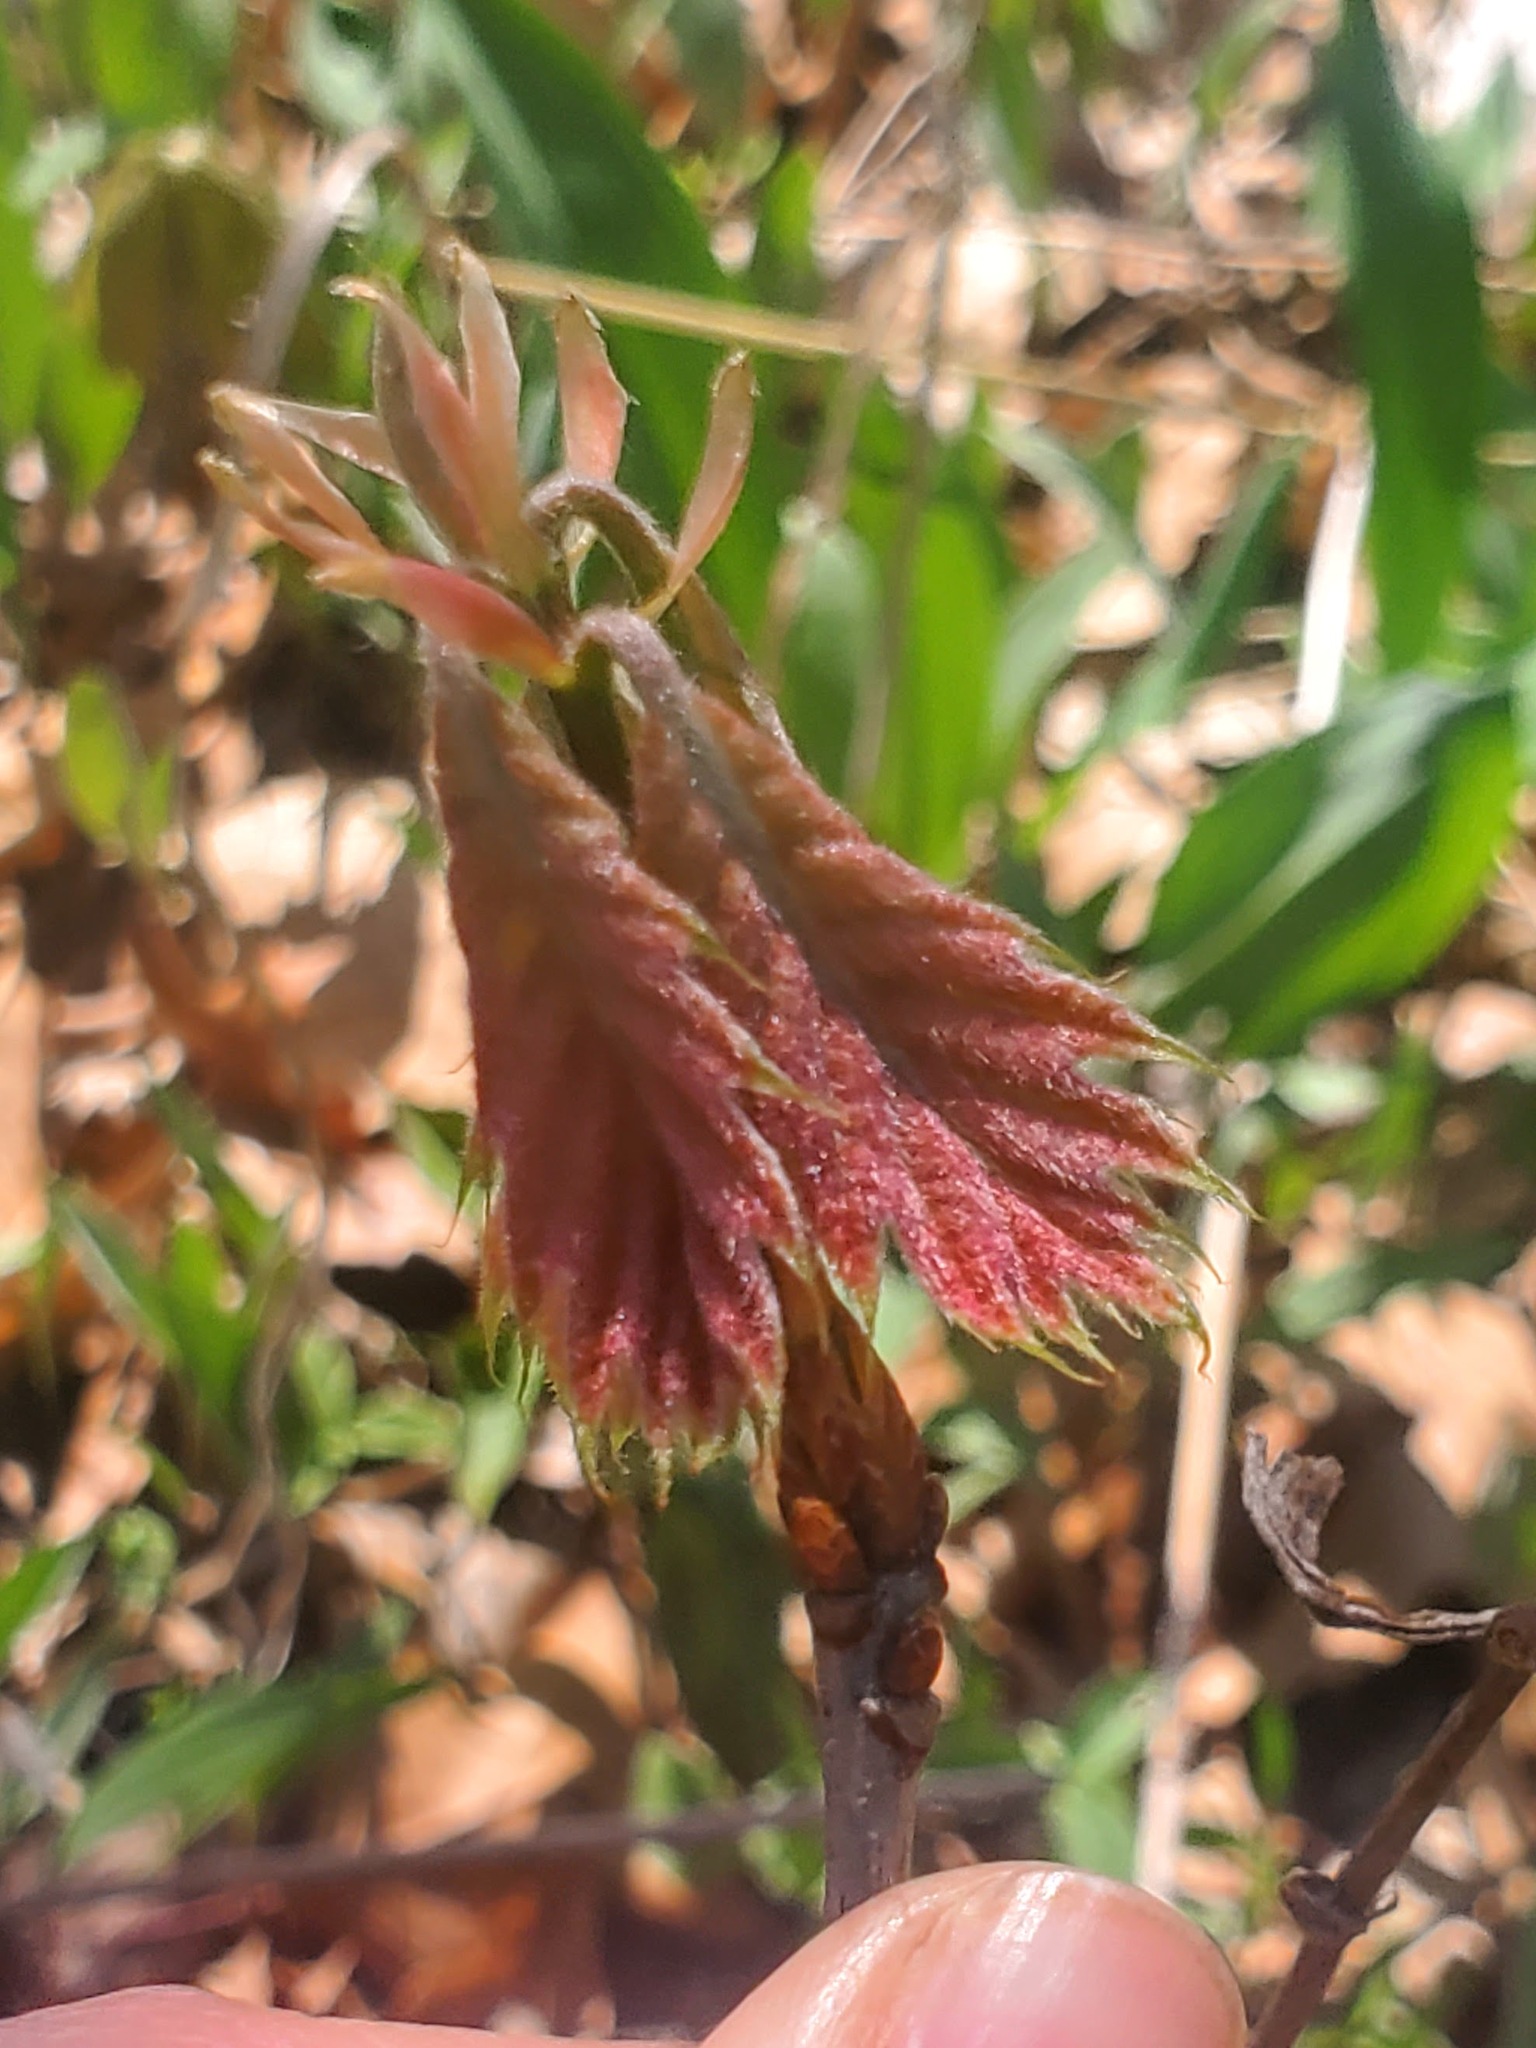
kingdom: Plantae
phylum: Tracheophyta
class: Magnoliopsida
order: Fagales
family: Fagaceae
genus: Quercus
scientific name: Quercus rubra
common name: Red oak
